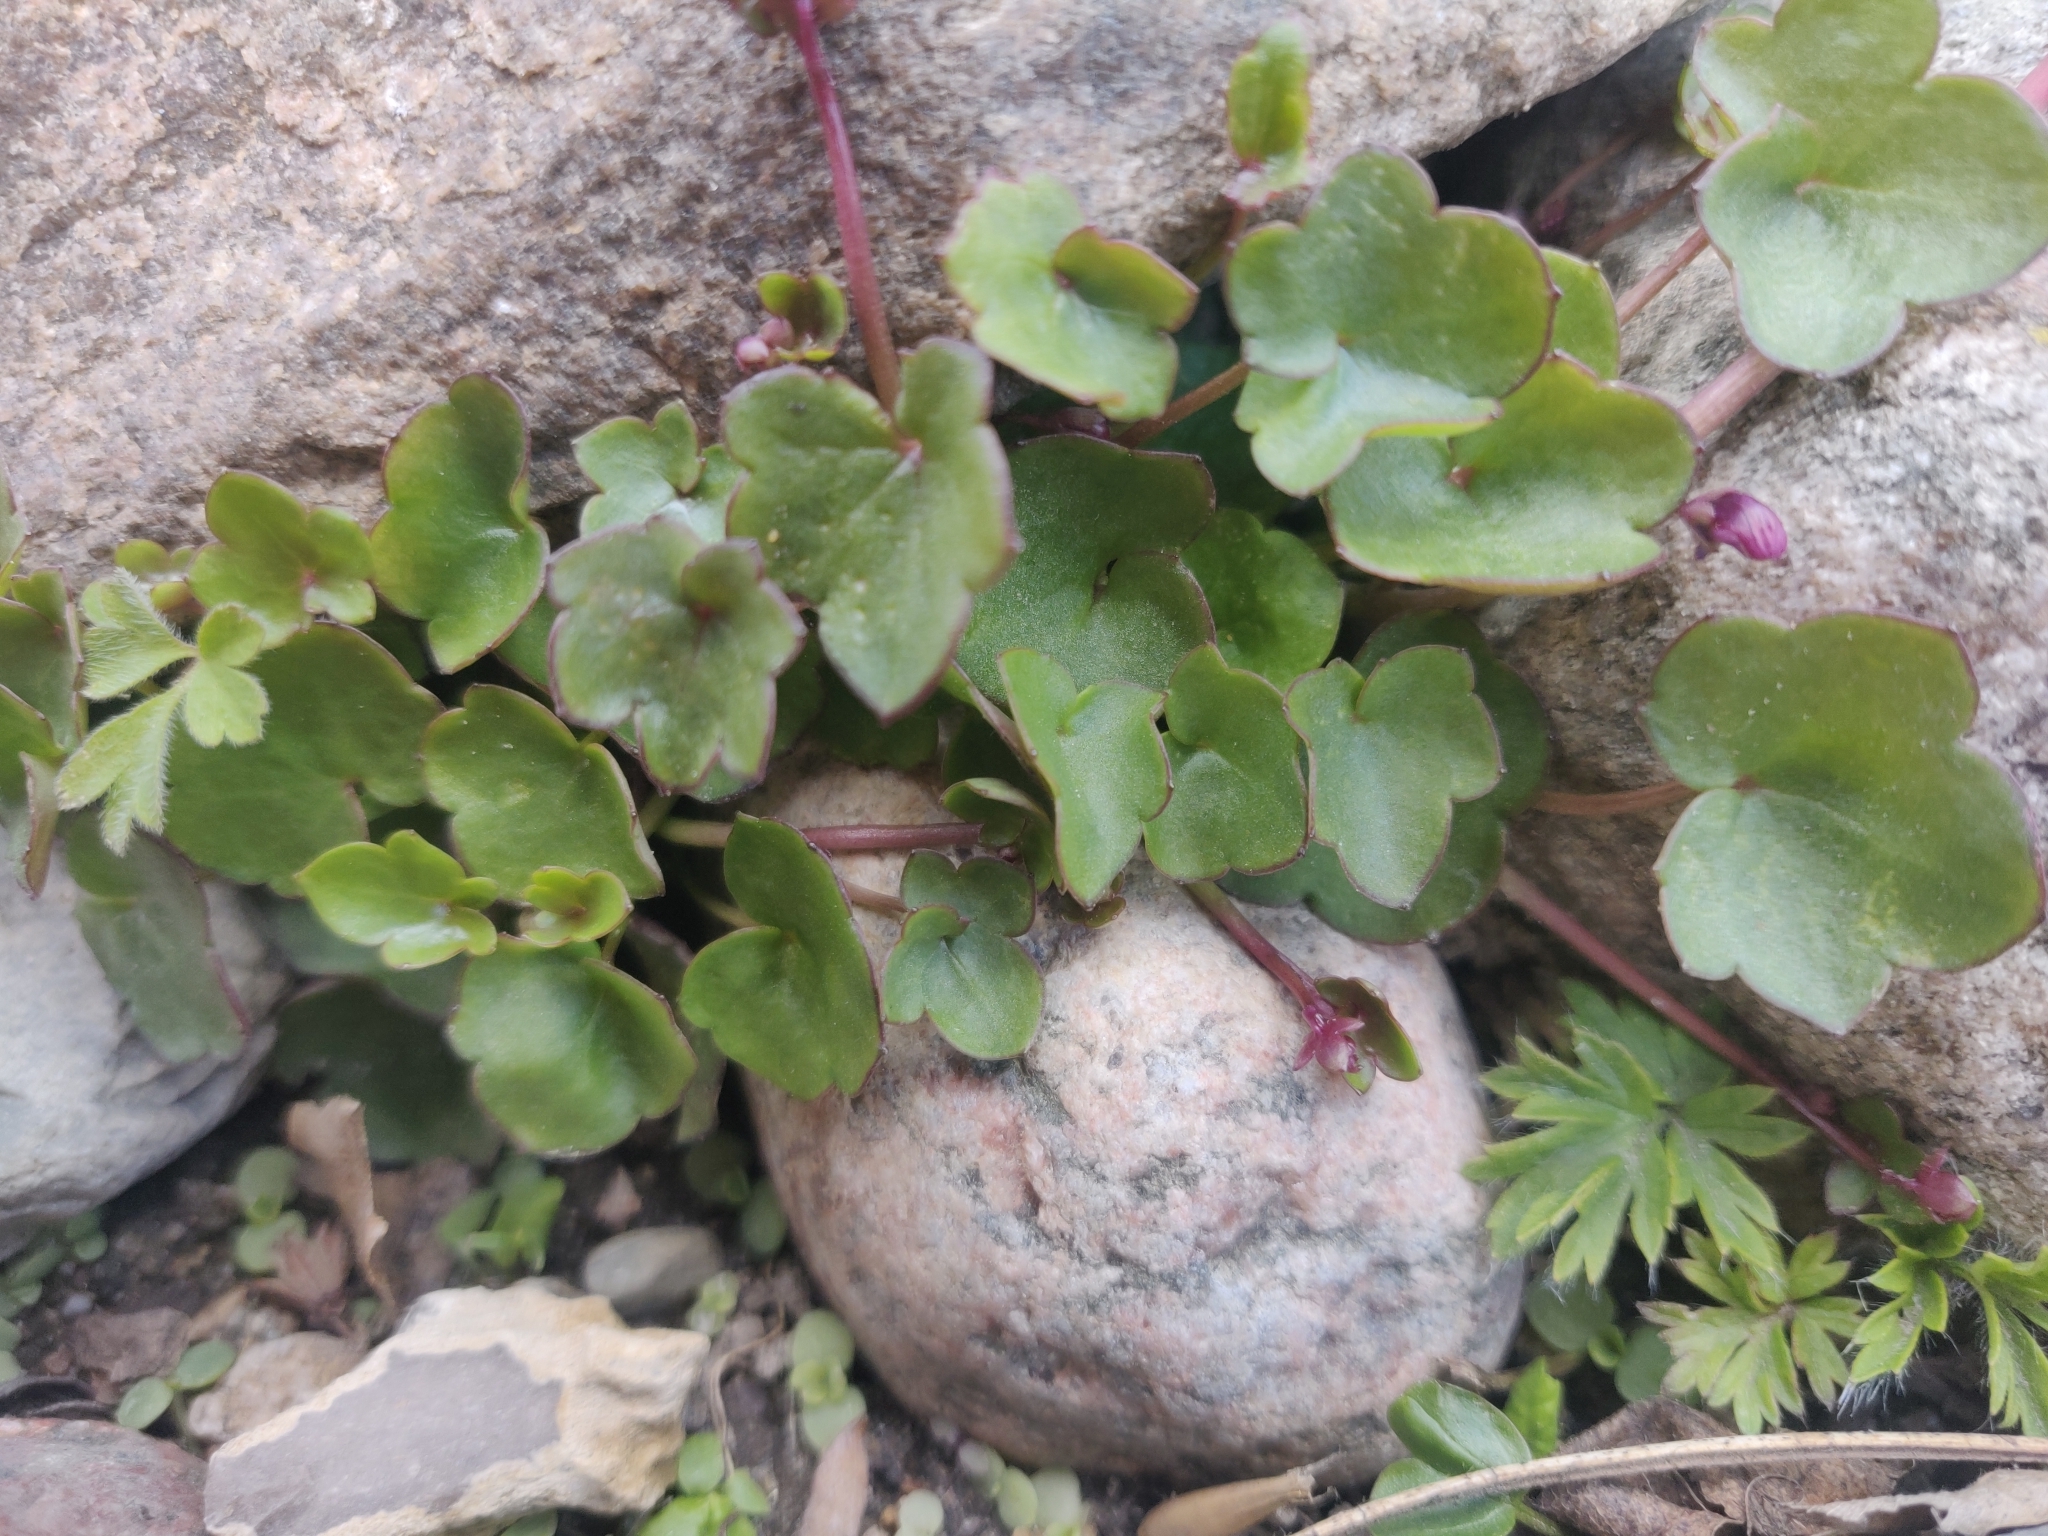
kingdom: Plantae
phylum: Tracheophyta
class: Magnoliopsida
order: Lamiales
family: Plantaginaceae
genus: Cymbalaria
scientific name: Cymbalaria muralis
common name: Ivy-leaved toadflax
